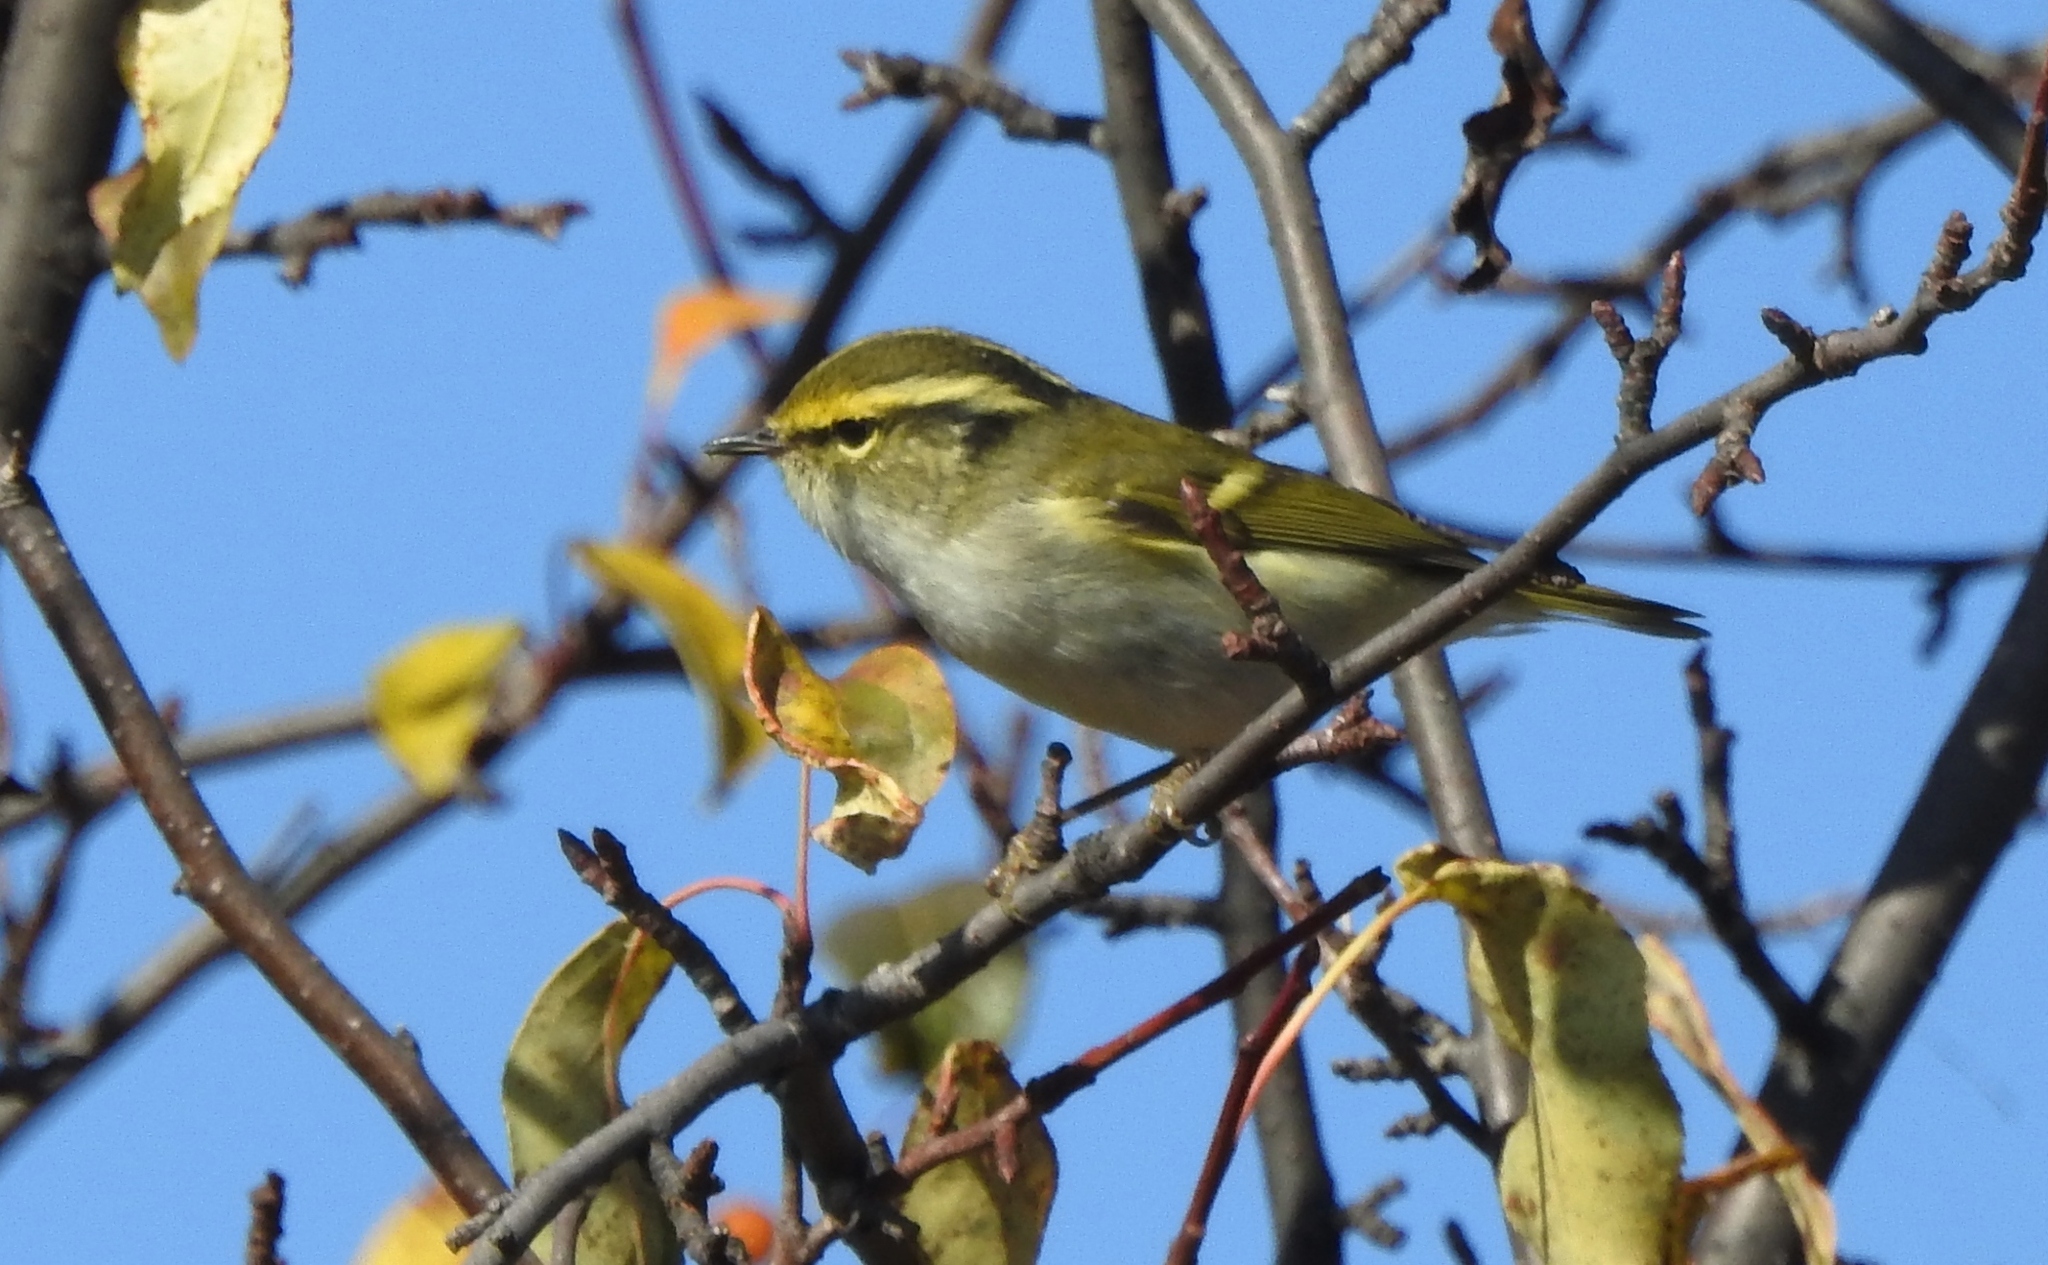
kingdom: Animalia
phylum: Chordata
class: Aves
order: Passeriformes
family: Phylloscopidae
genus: Phylloscopus
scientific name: Phylloscopus proregulus
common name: Pallas's leaf warbler
